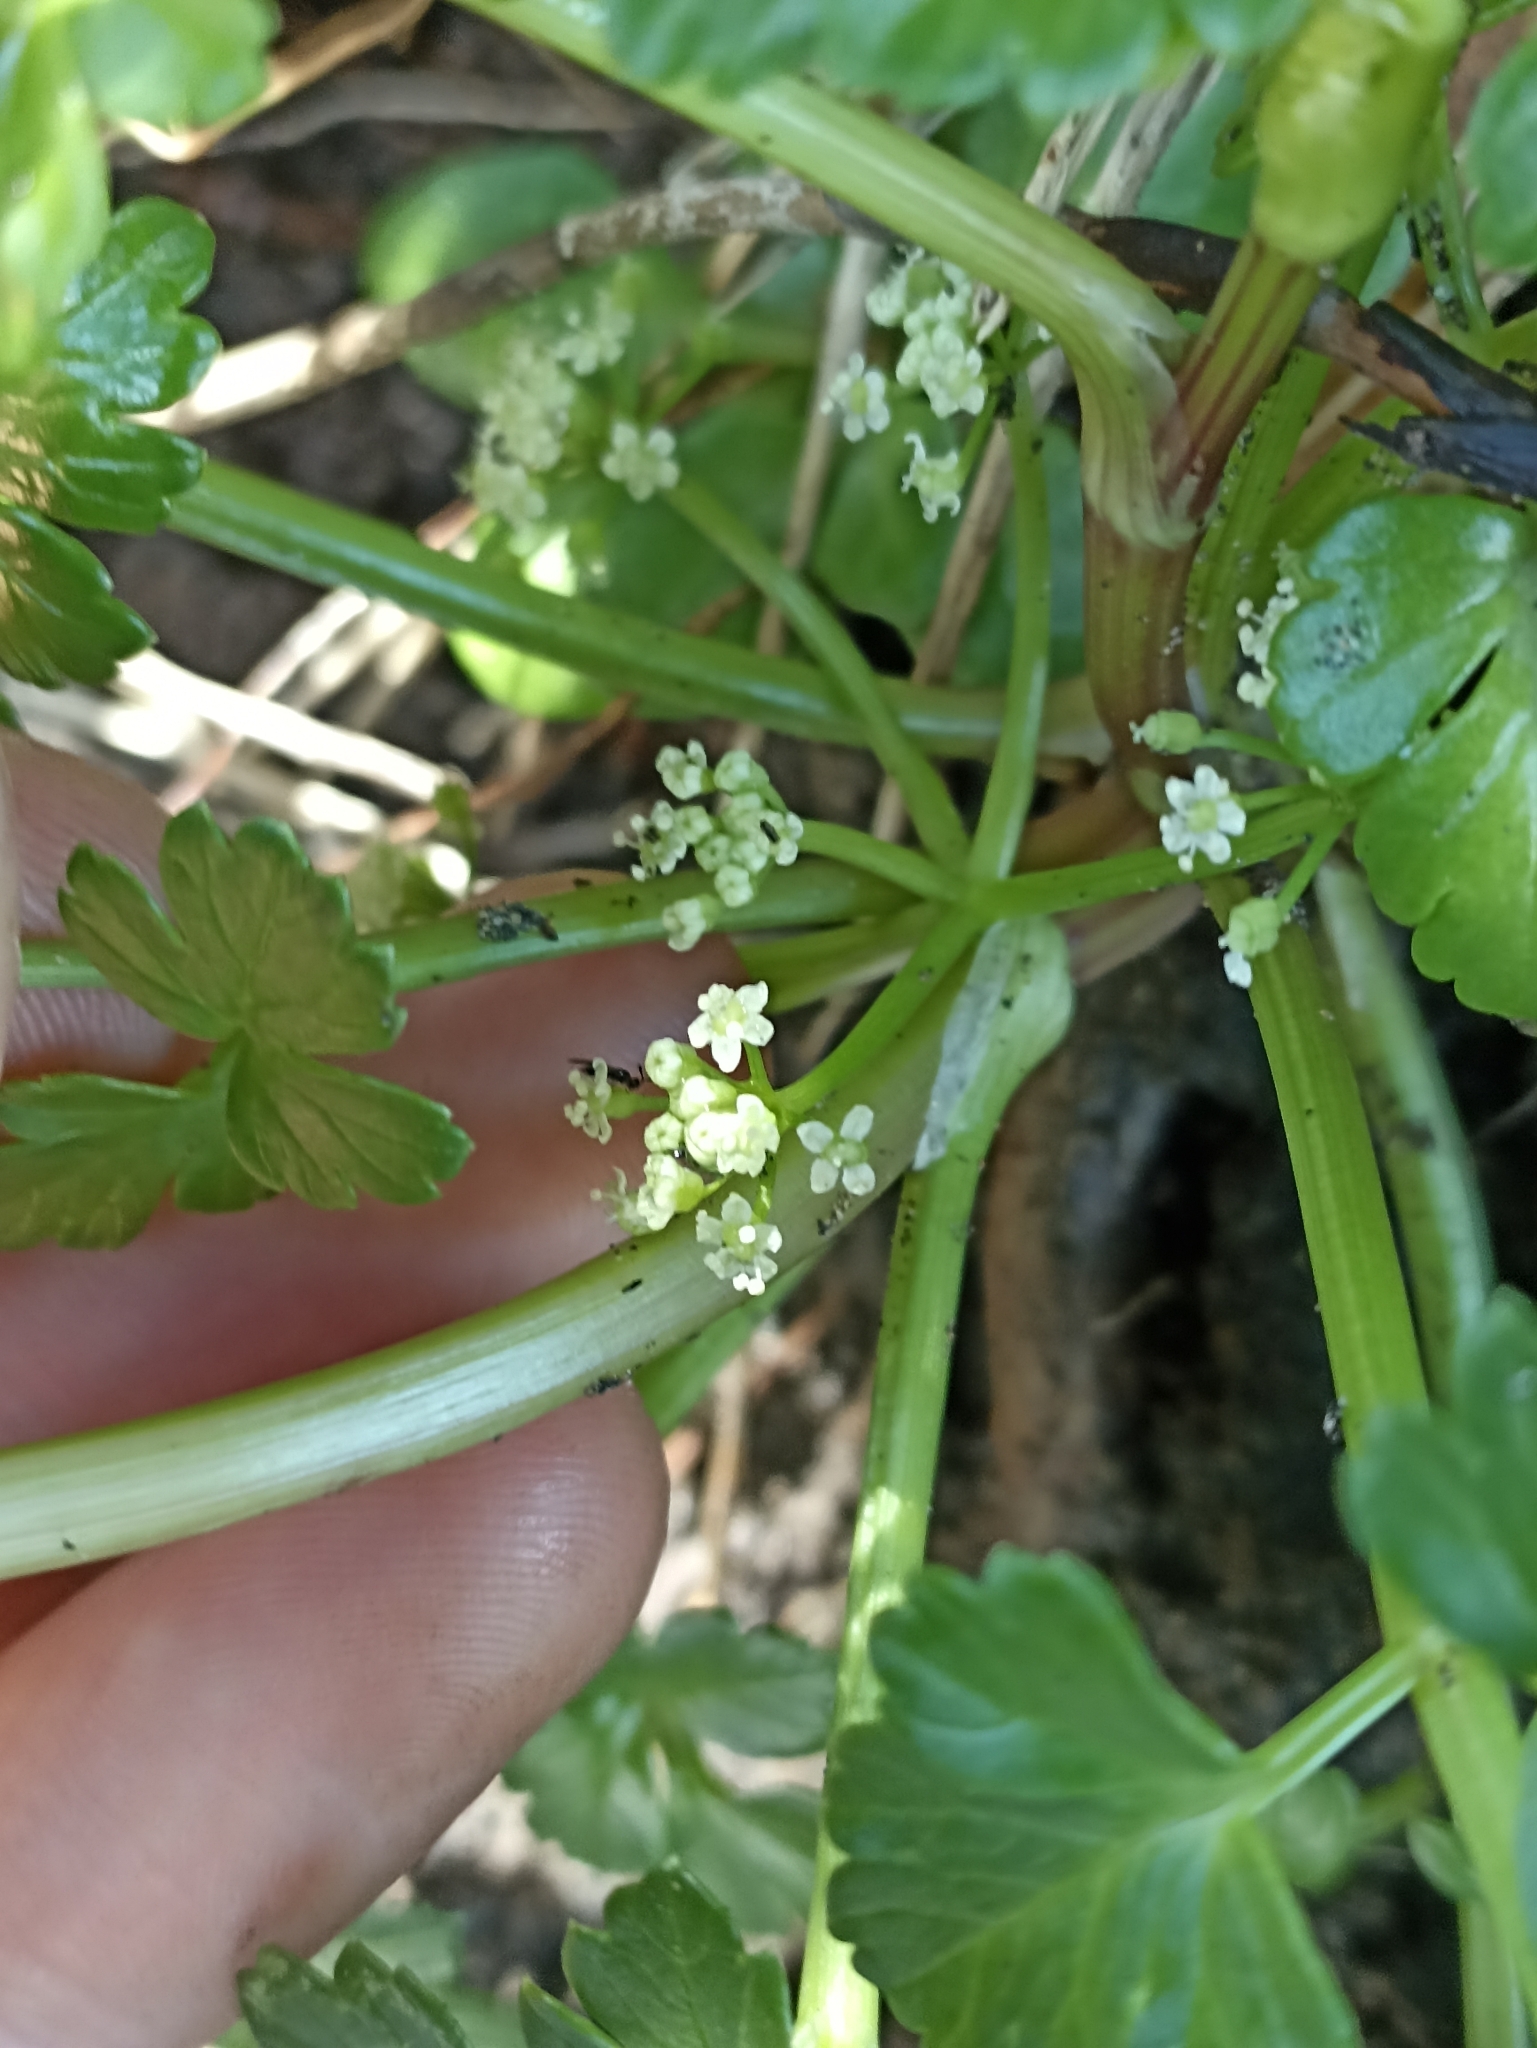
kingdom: Plantae
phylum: Tracheophyta
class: Magnoliopsida
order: Apiales
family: Apiaceae
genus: Apium
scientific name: Apium prostratum
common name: Prostrate marshwort
